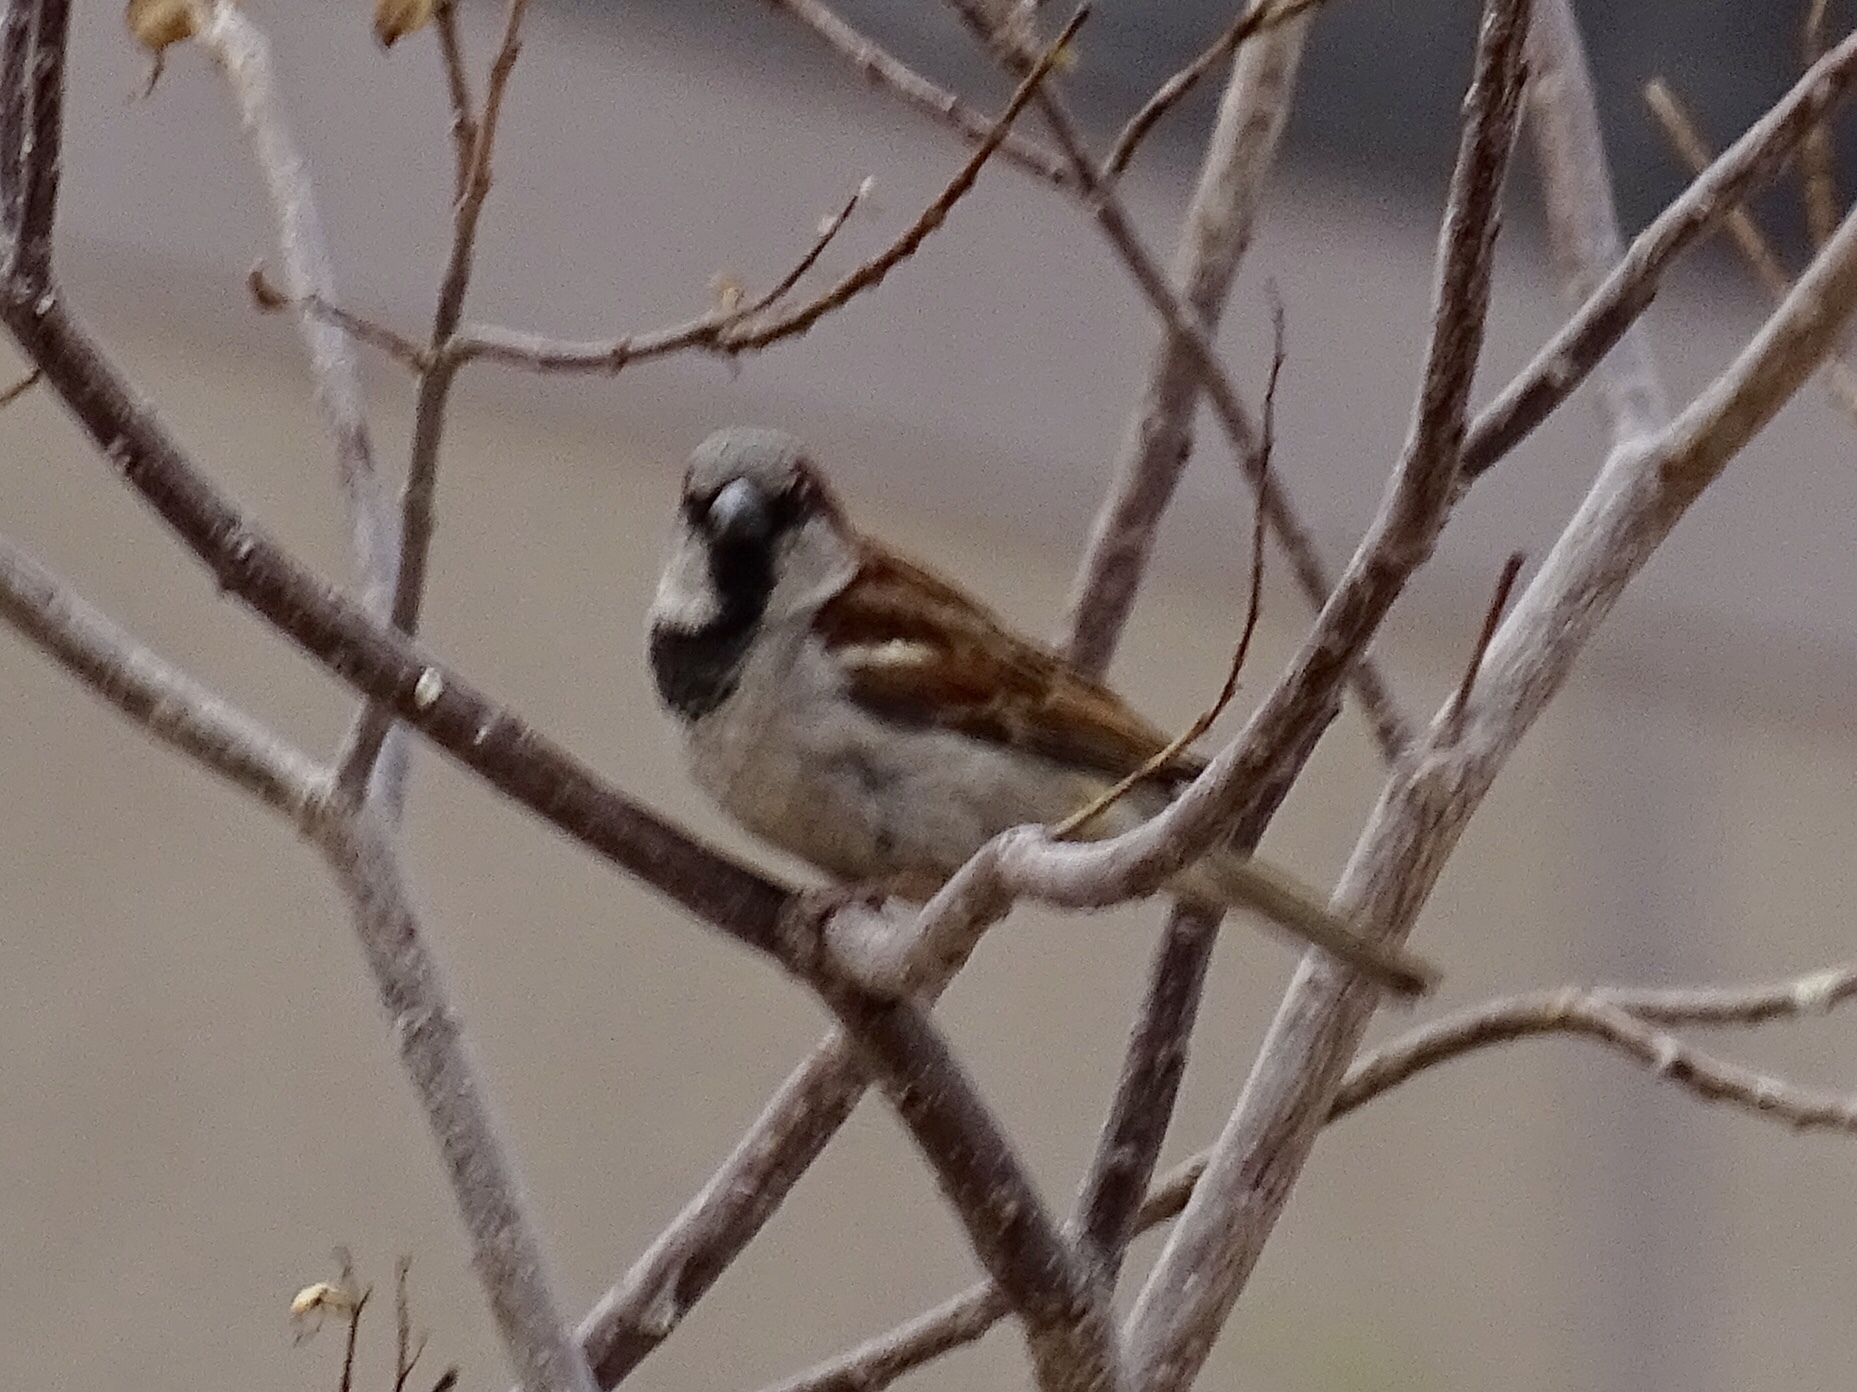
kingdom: Animalia
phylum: Chordata
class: Aves
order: Passeriformes
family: Passeridae
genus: Passer
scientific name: Passer domesticus
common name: House sparrow
